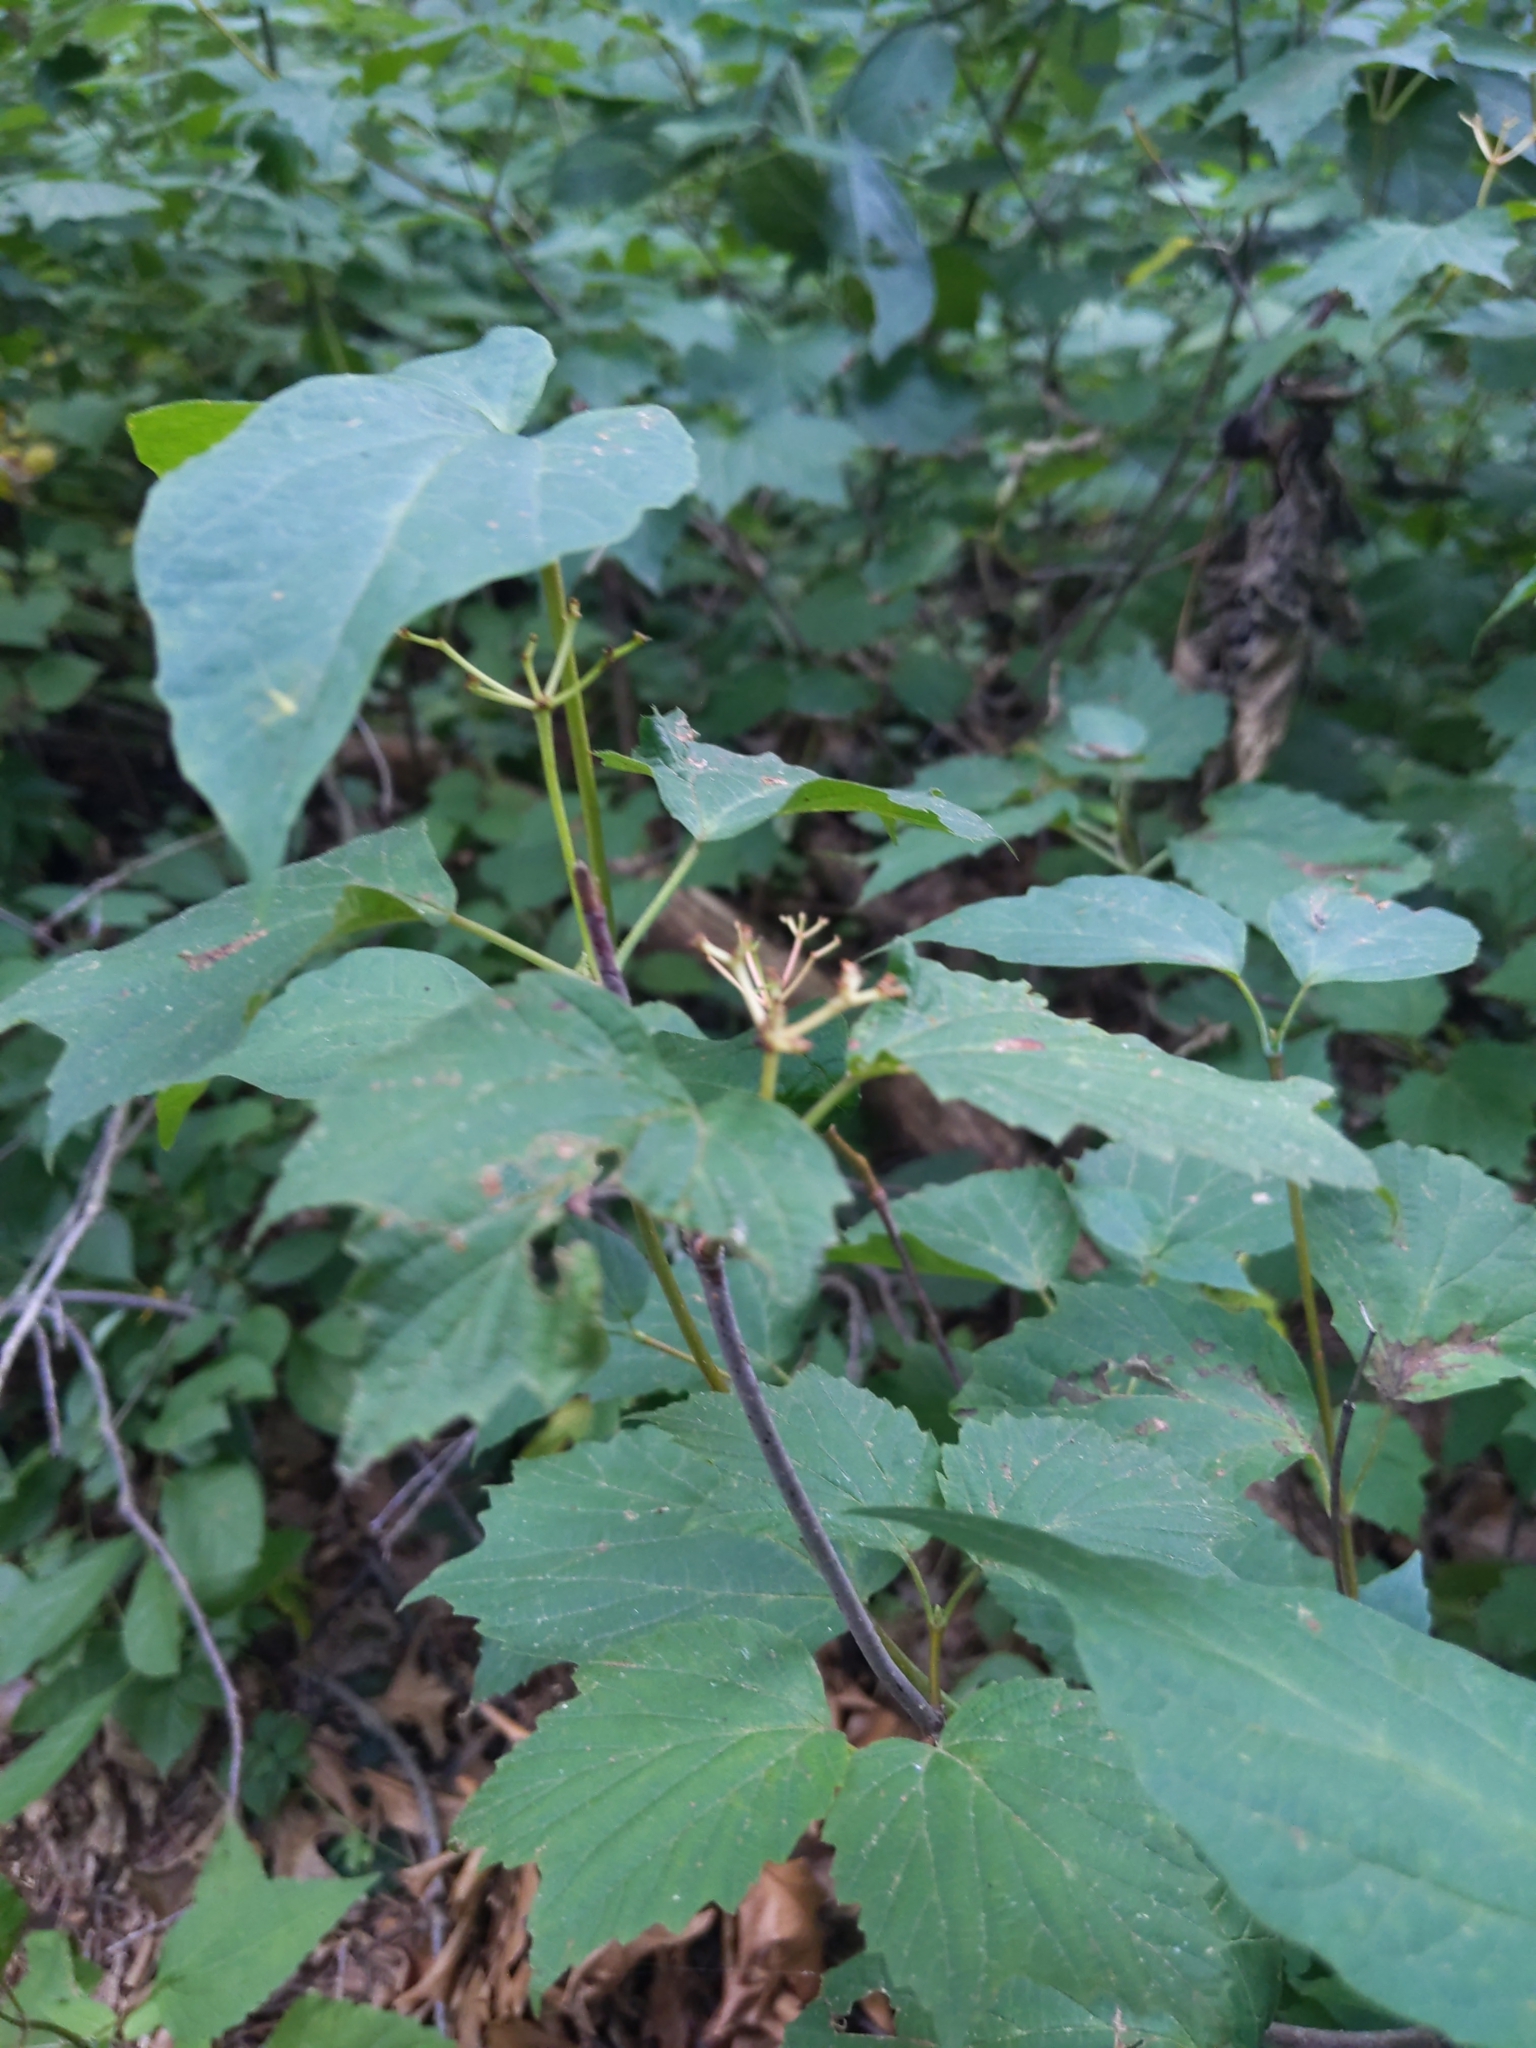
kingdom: Plantae
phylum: Tracheophyta
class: Magnoliopsida
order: Dipsacales
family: Viburnaceae
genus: Viburnum
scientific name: Viburnum acerifolium
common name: Dockmackie
